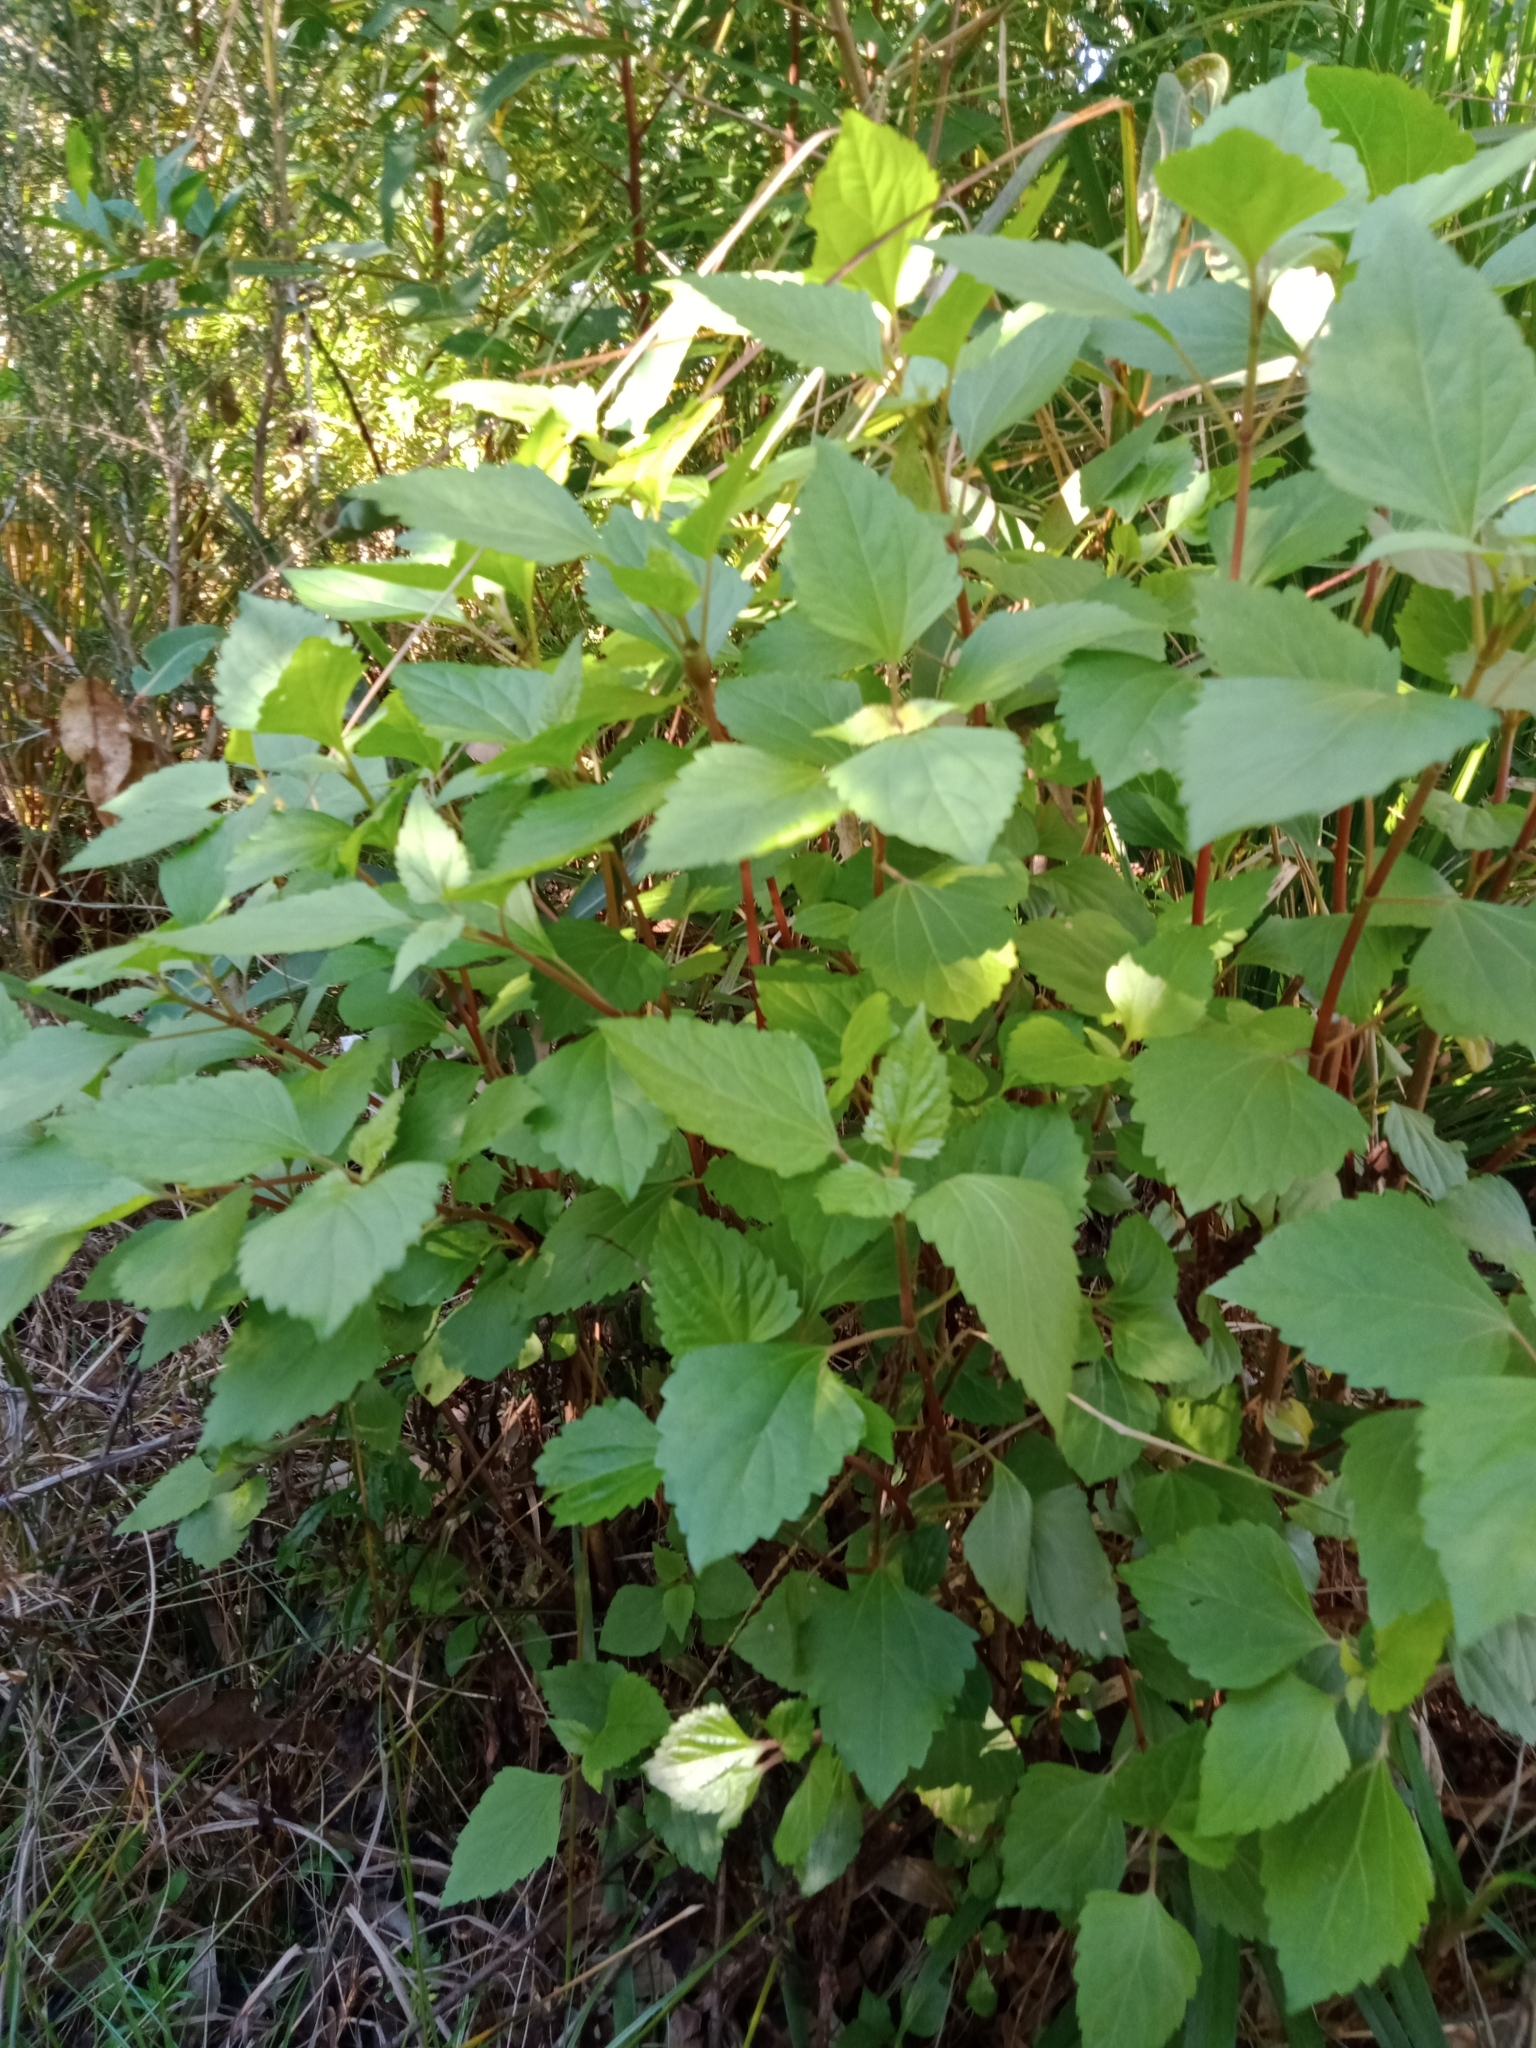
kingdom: Plantae
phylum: Tracheophyta
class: Magnoliopsida
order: Asterales
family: Asteraceae
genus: Ageratina
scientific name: Ageratina adenophora
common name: Sticky snakeroot
